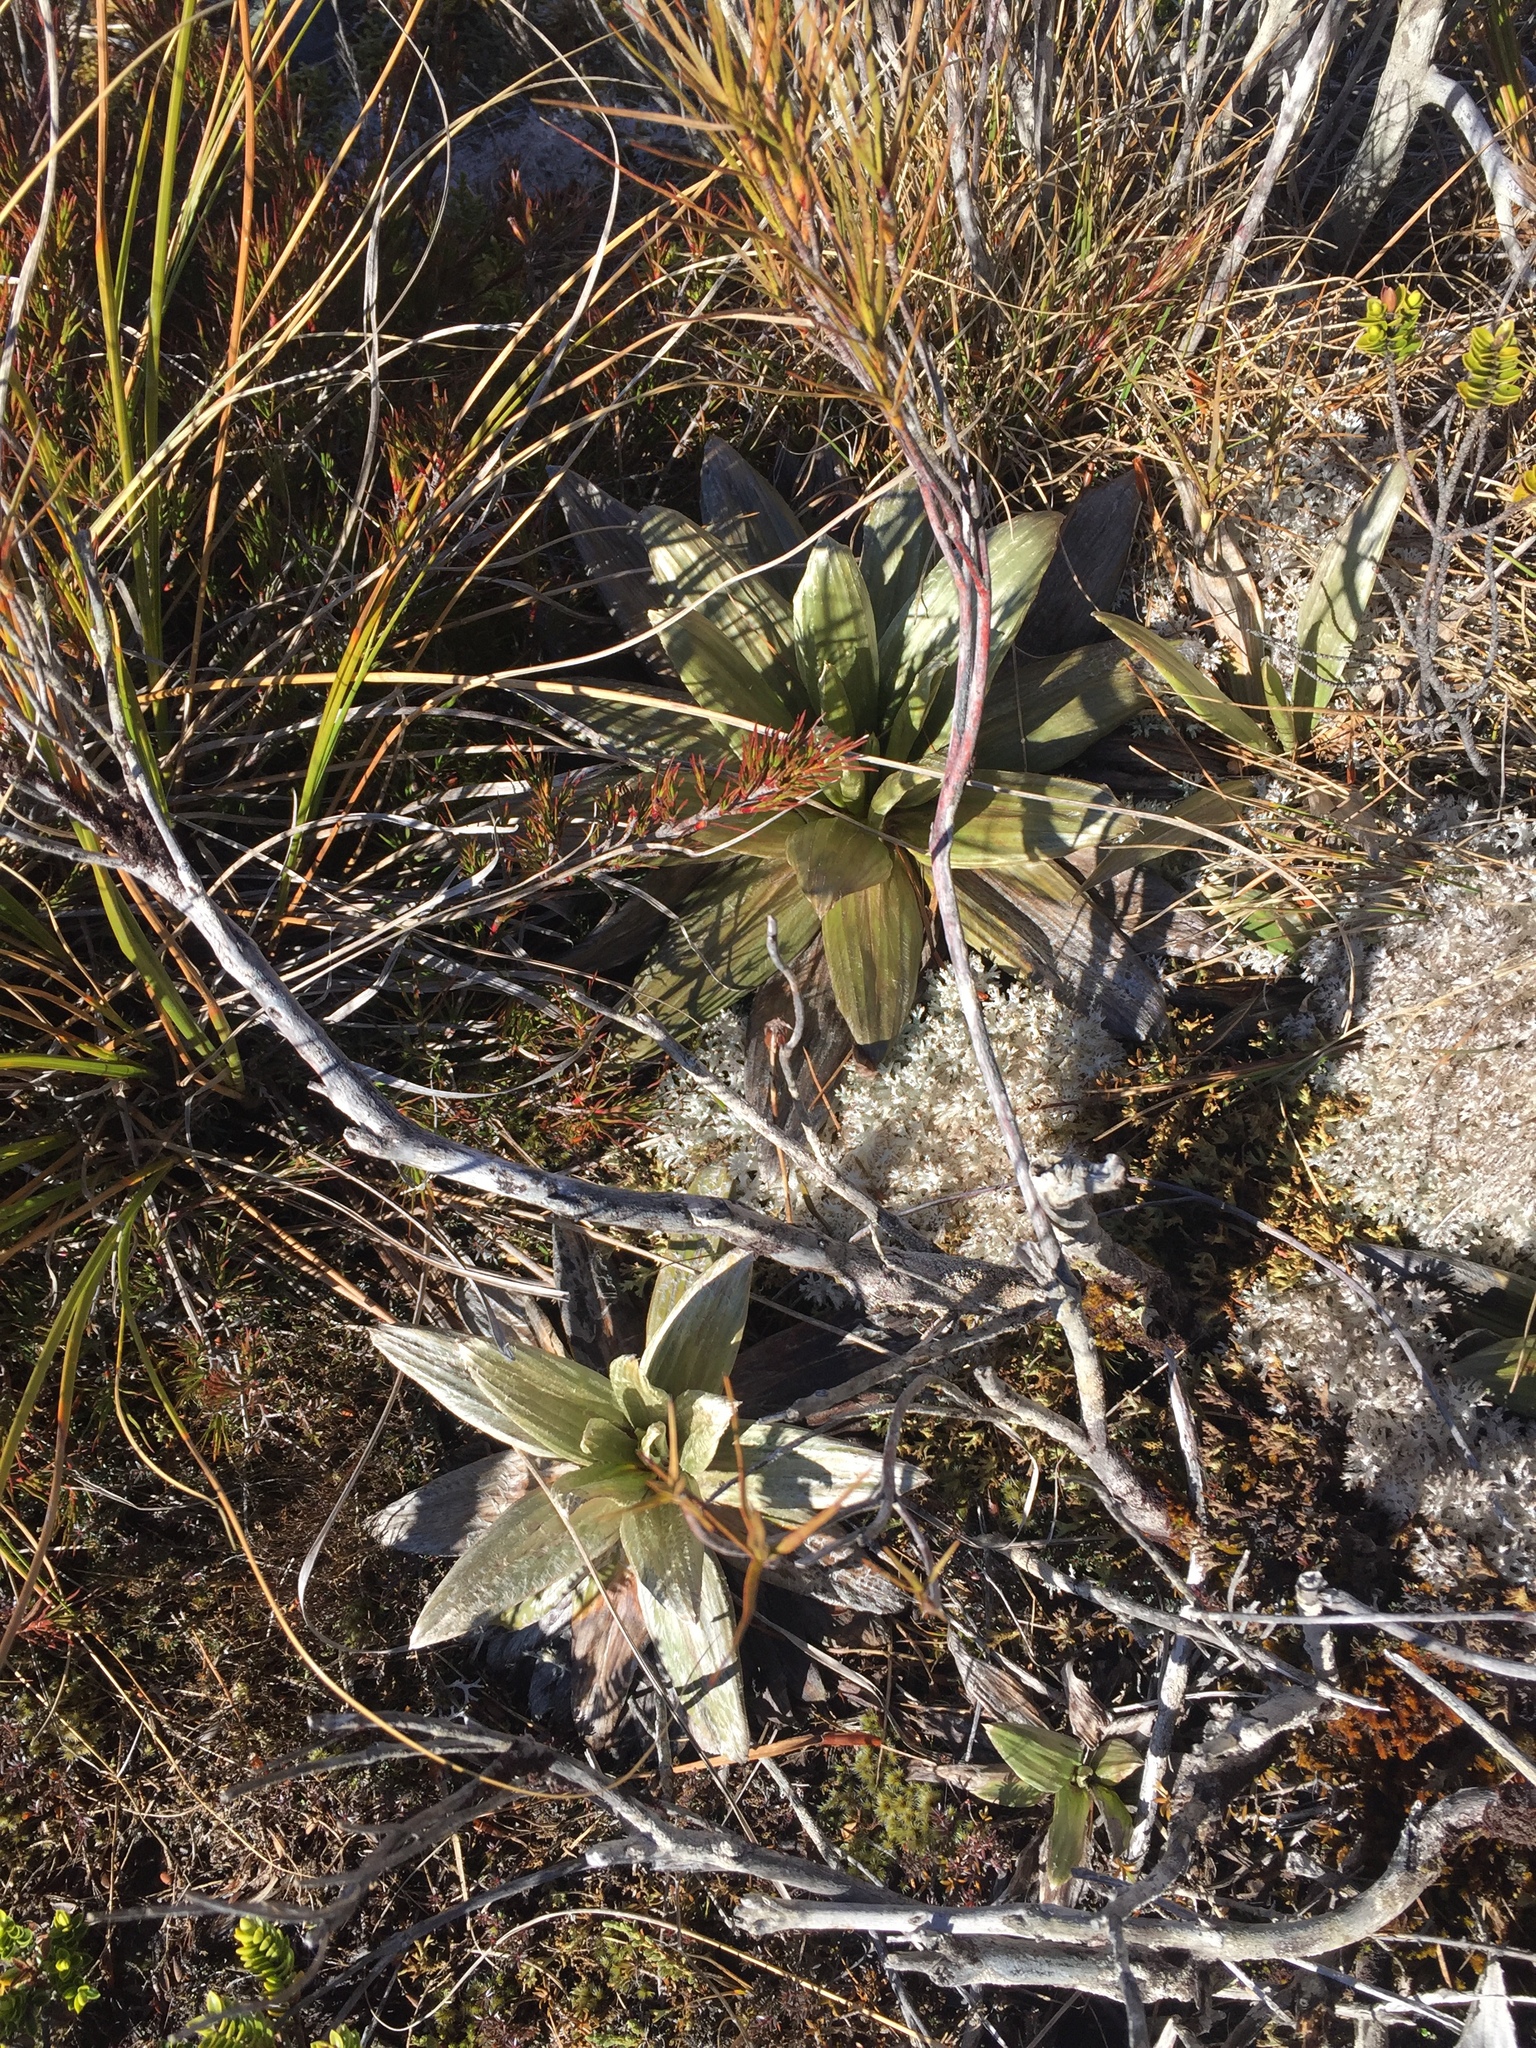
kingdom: Plantae
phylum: Tracheophyta
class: Magnoliopsida
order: Asterales
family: Asteraceae
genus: Celmisia
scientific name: Celmisia semicordata
